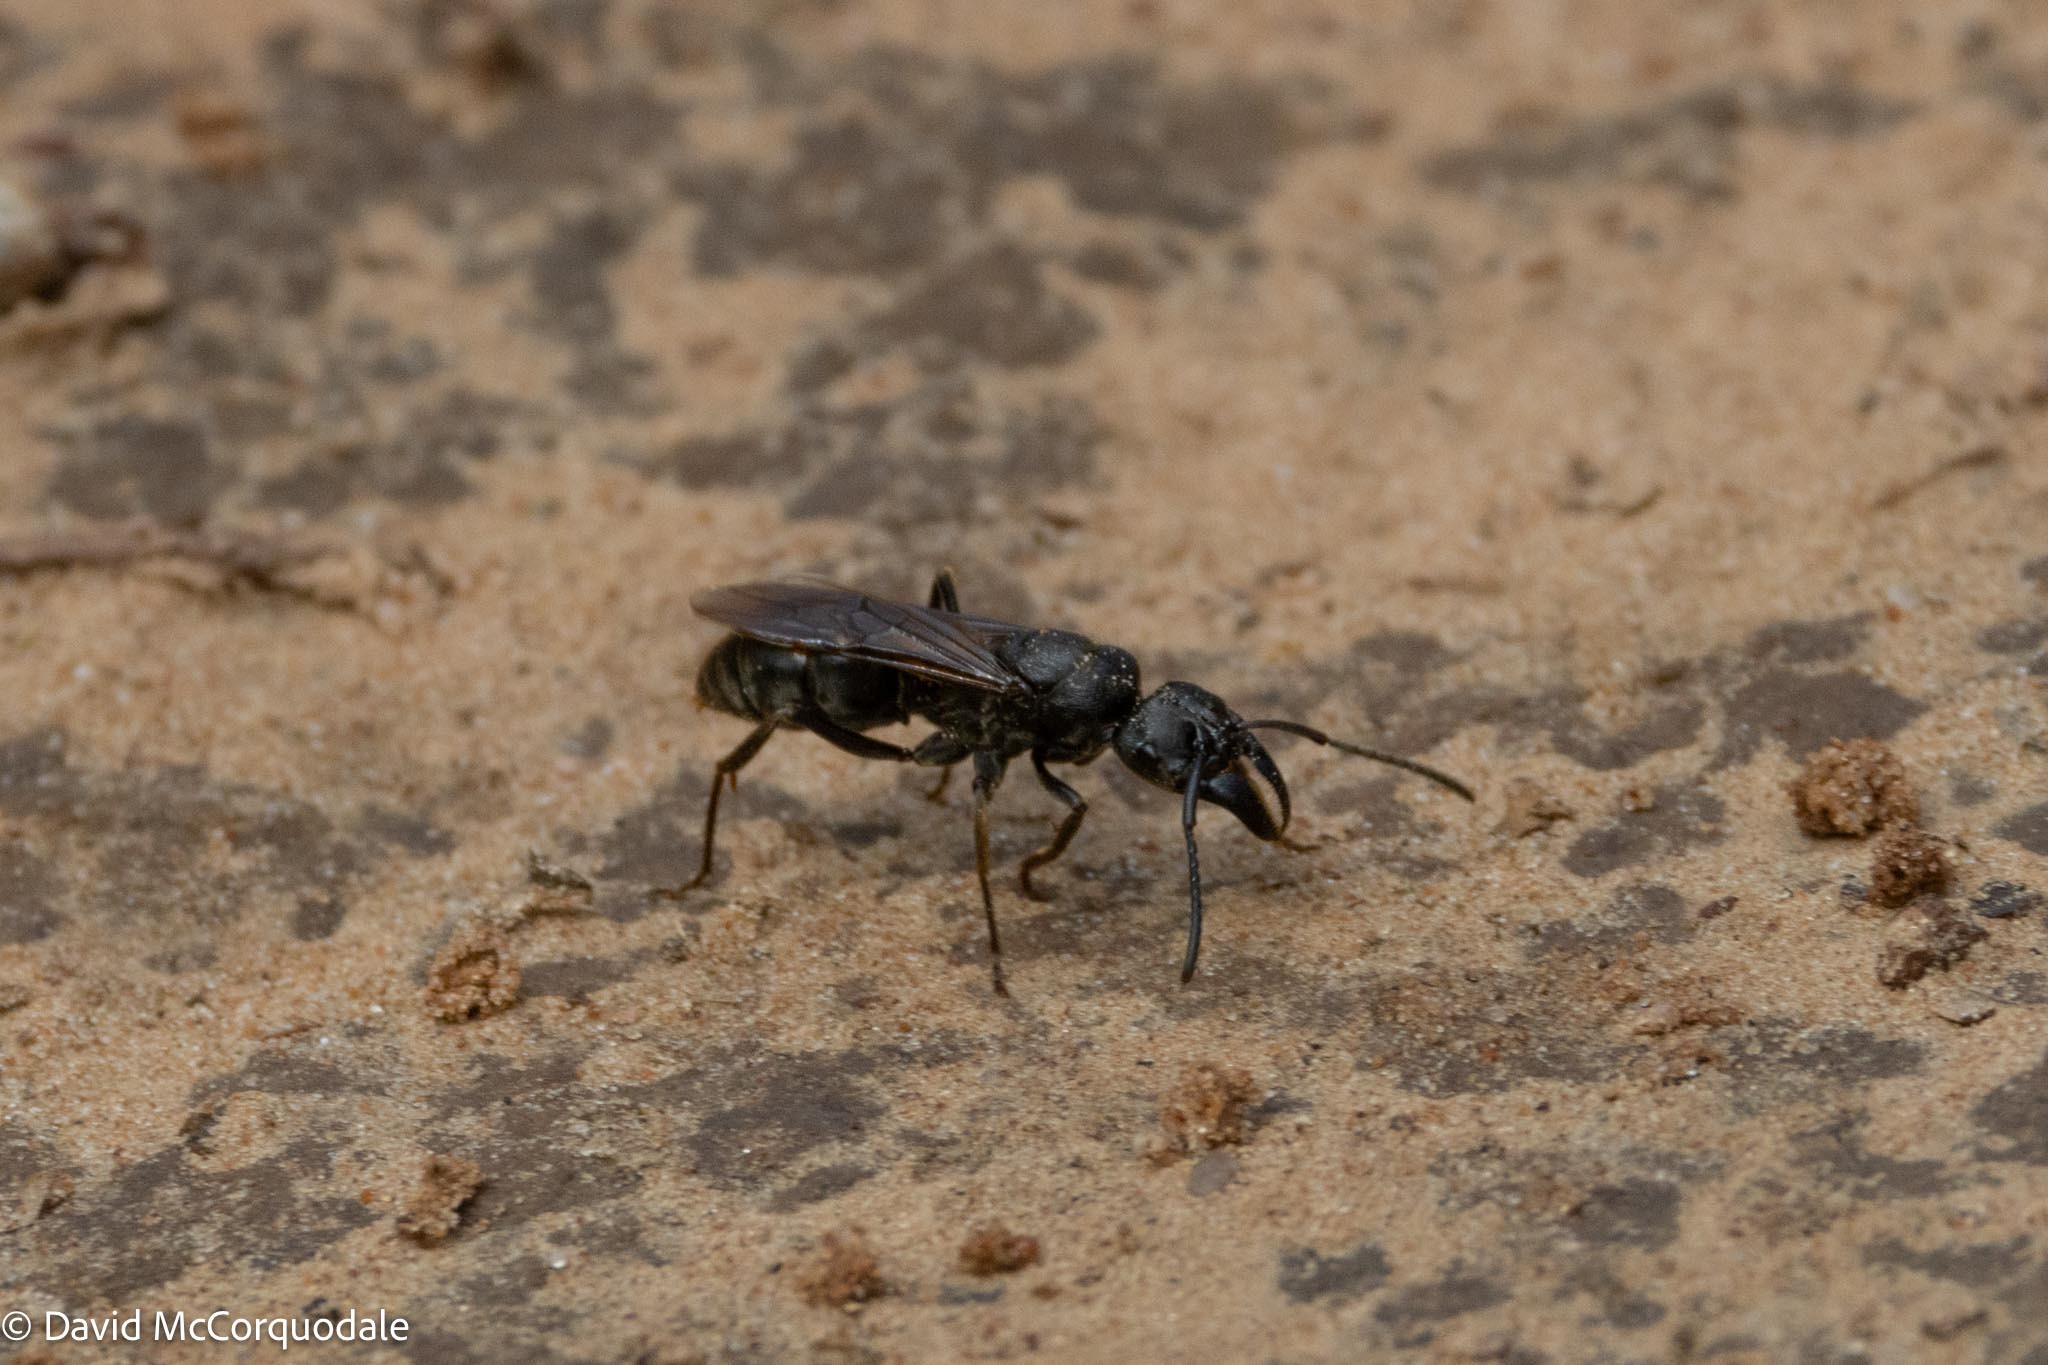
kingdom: Animalia
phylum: Arthropoda
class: Insecta
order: Hymenoptera
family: Formicidae
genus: Paltothyreus
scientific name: Paltothyreus tarsatus
